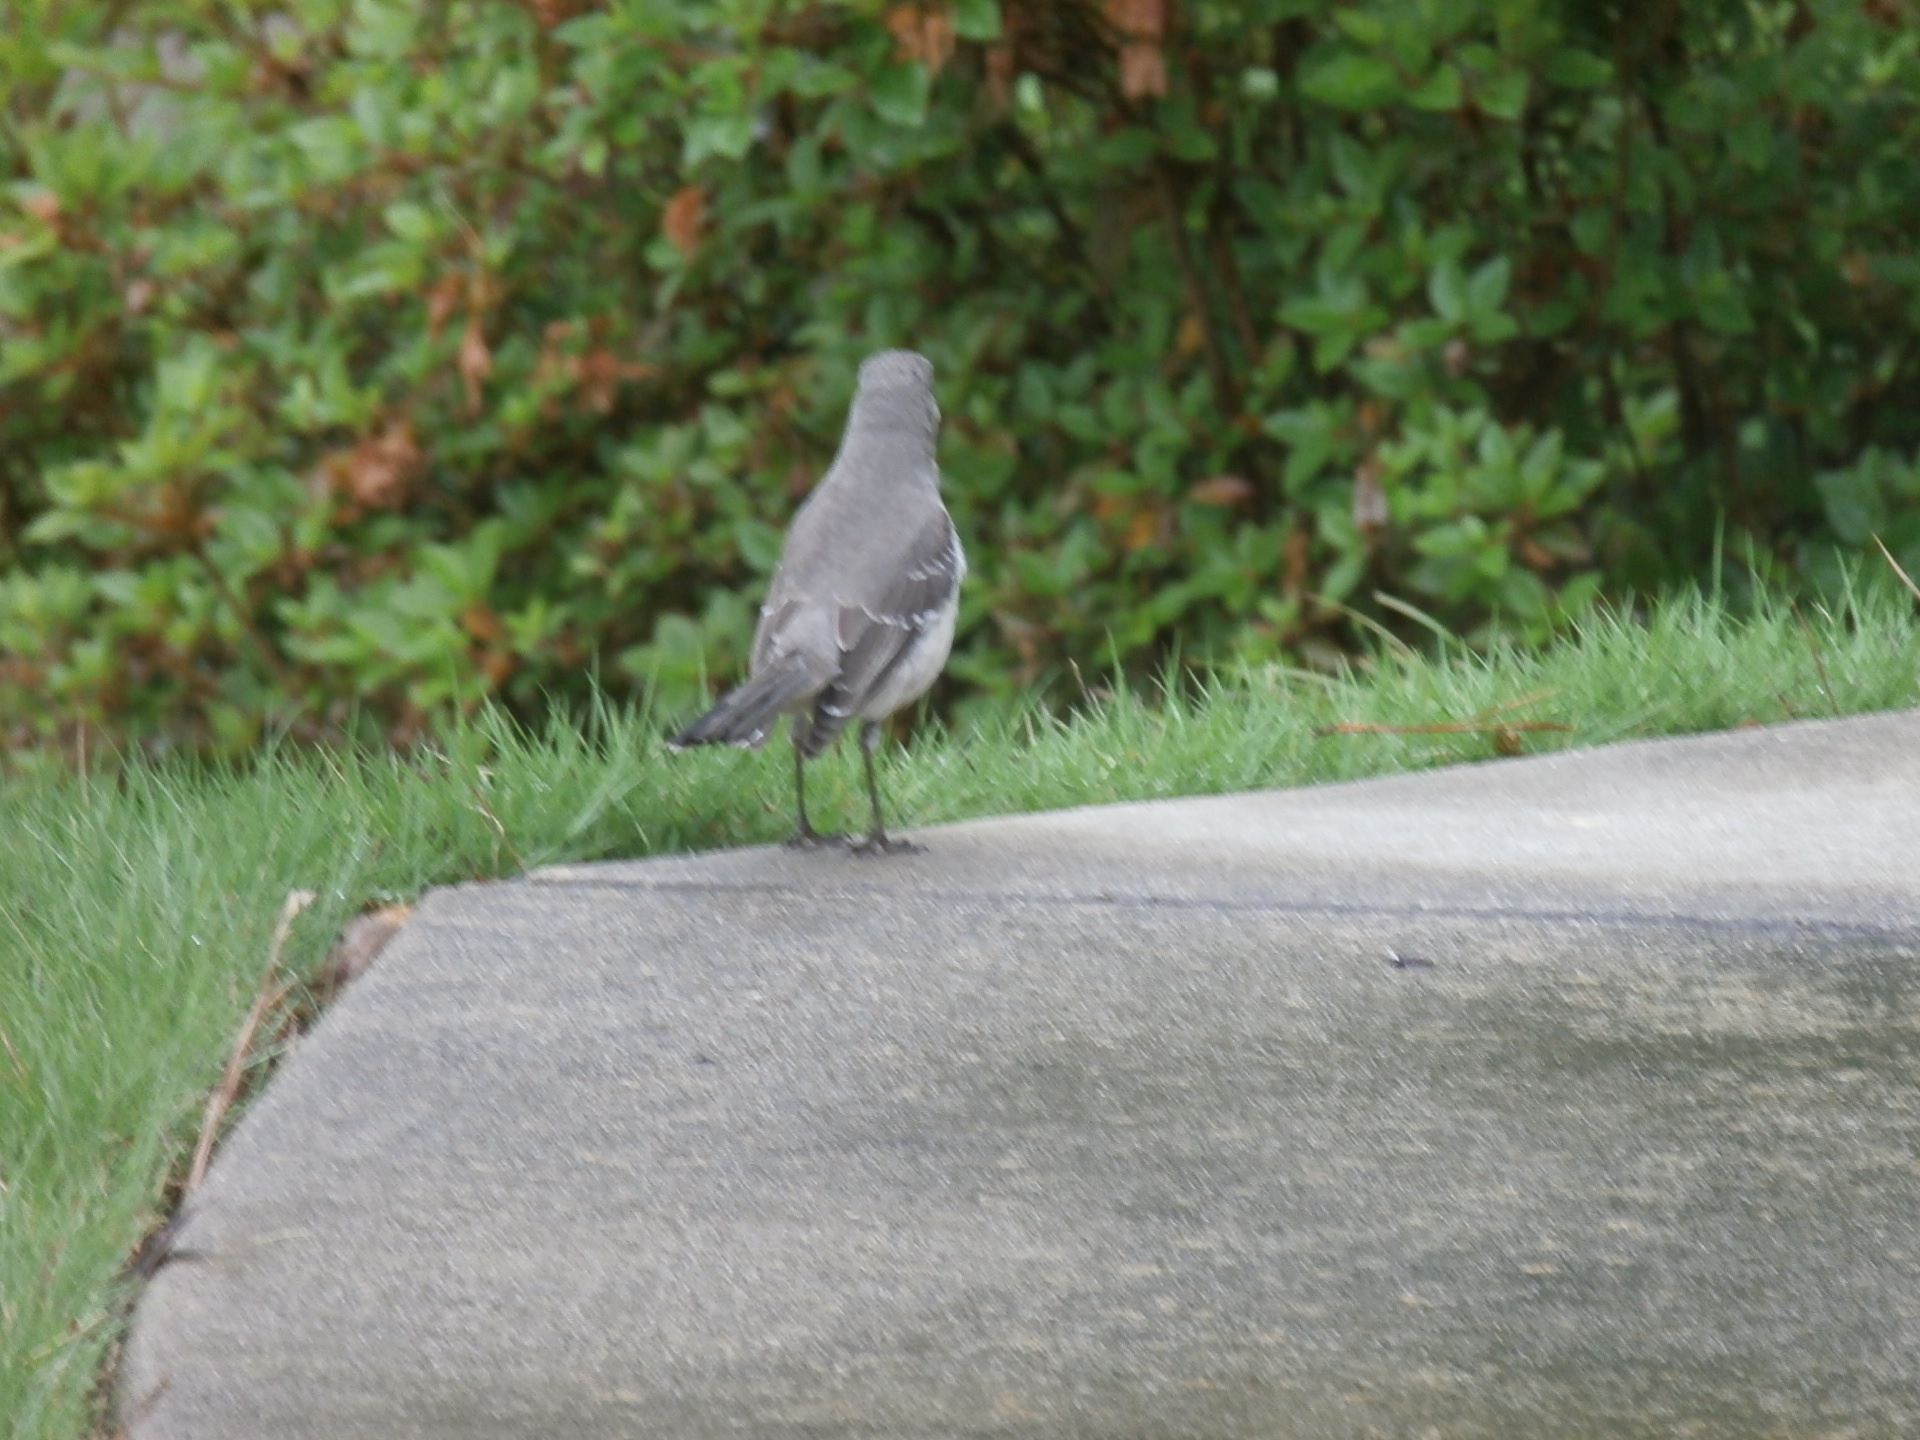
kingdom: Animalia
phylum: Chordata
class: Aves
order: Passeriformes
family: Mimidae
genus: Mimus
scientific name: Mimus polyglottos
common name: Northern mockingbird
